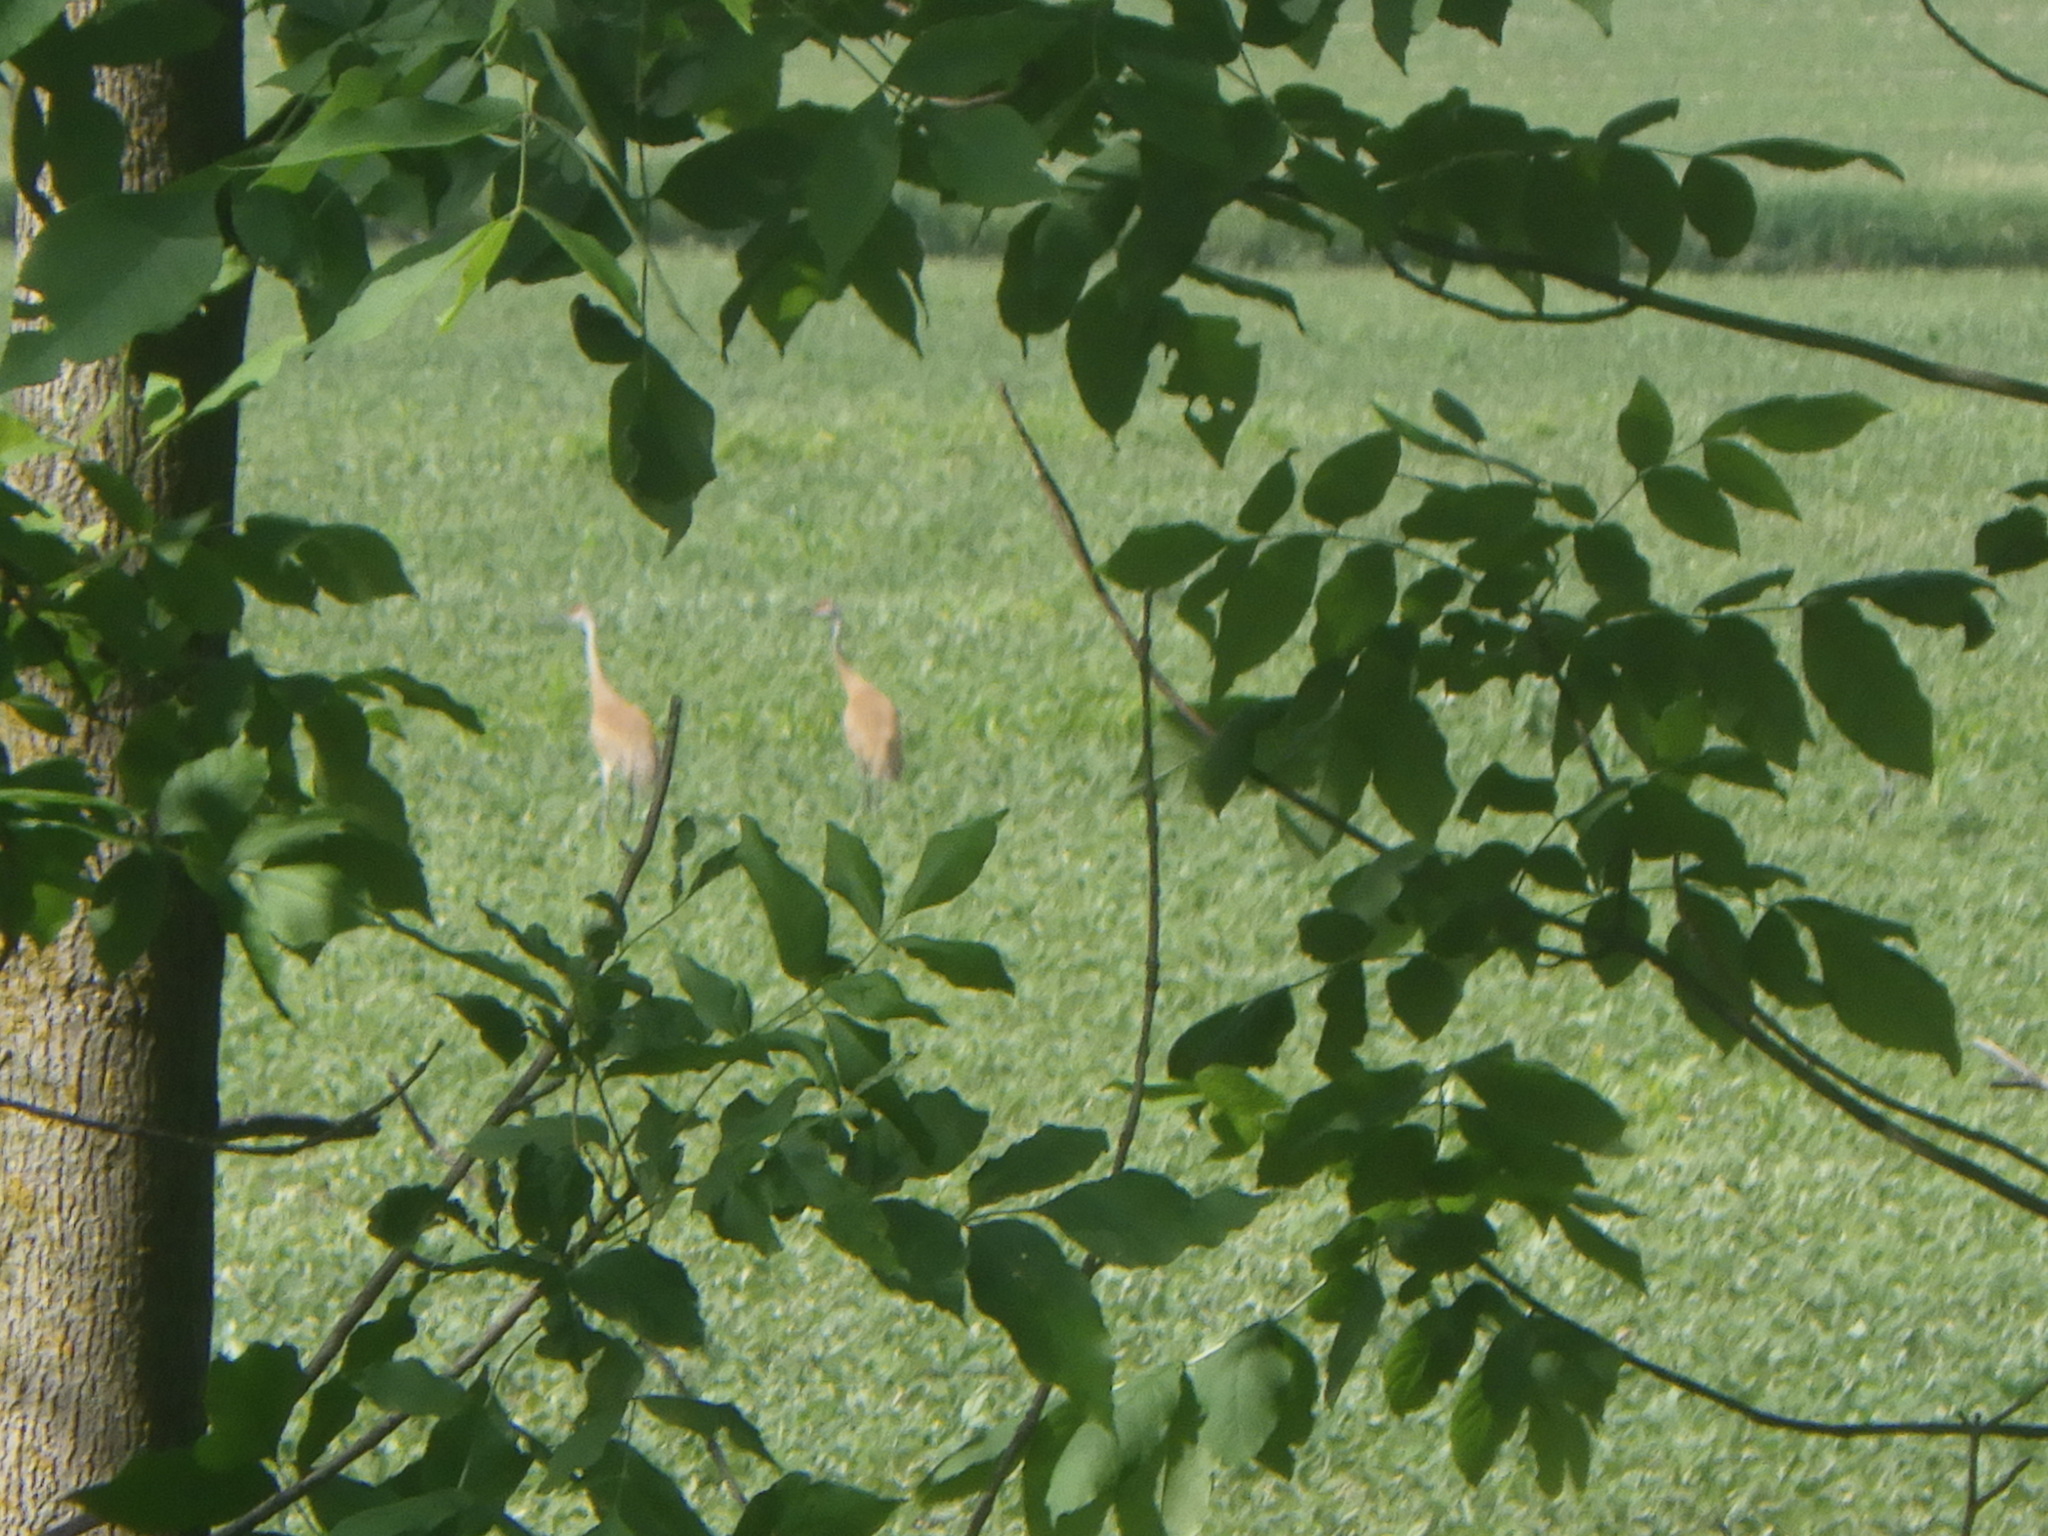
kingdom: Animalia
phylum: Chordata
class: Aves
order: Gruiformes
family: Gruidae
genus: Grus
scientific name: Grus canadensis
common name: Sandhill crane
